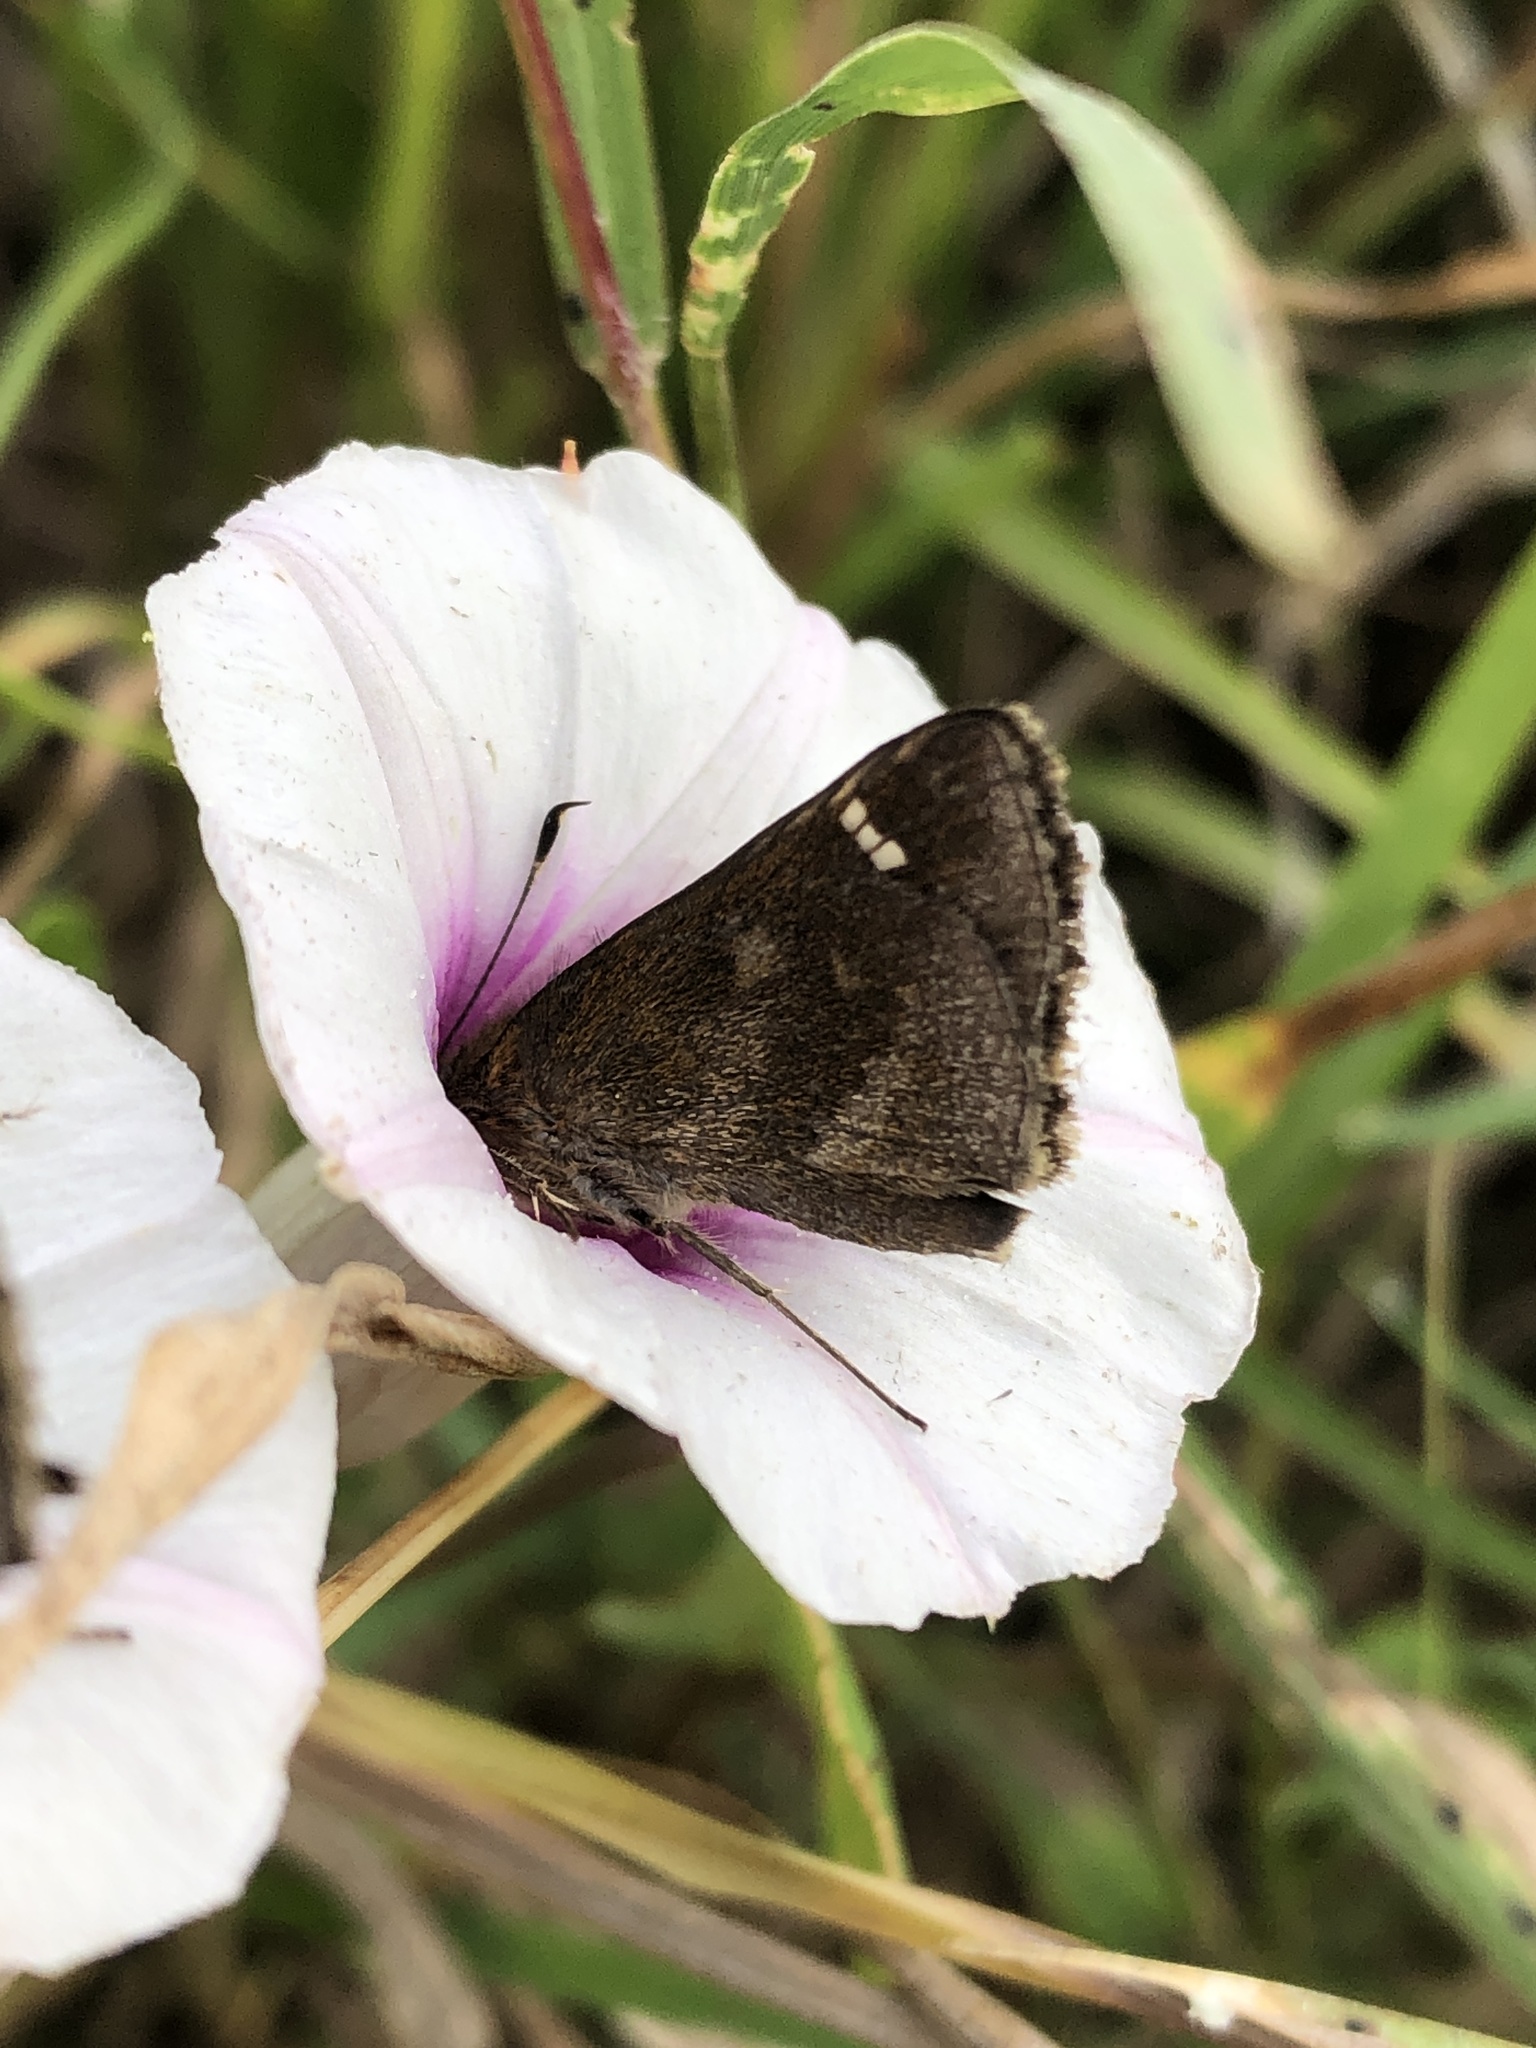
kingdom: Animalia
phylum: Arthropoda
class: Insecta
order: Lepidoptera
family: Hesperiidae
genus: Lerema
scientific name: Lerema accius
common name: Clouded skipper
